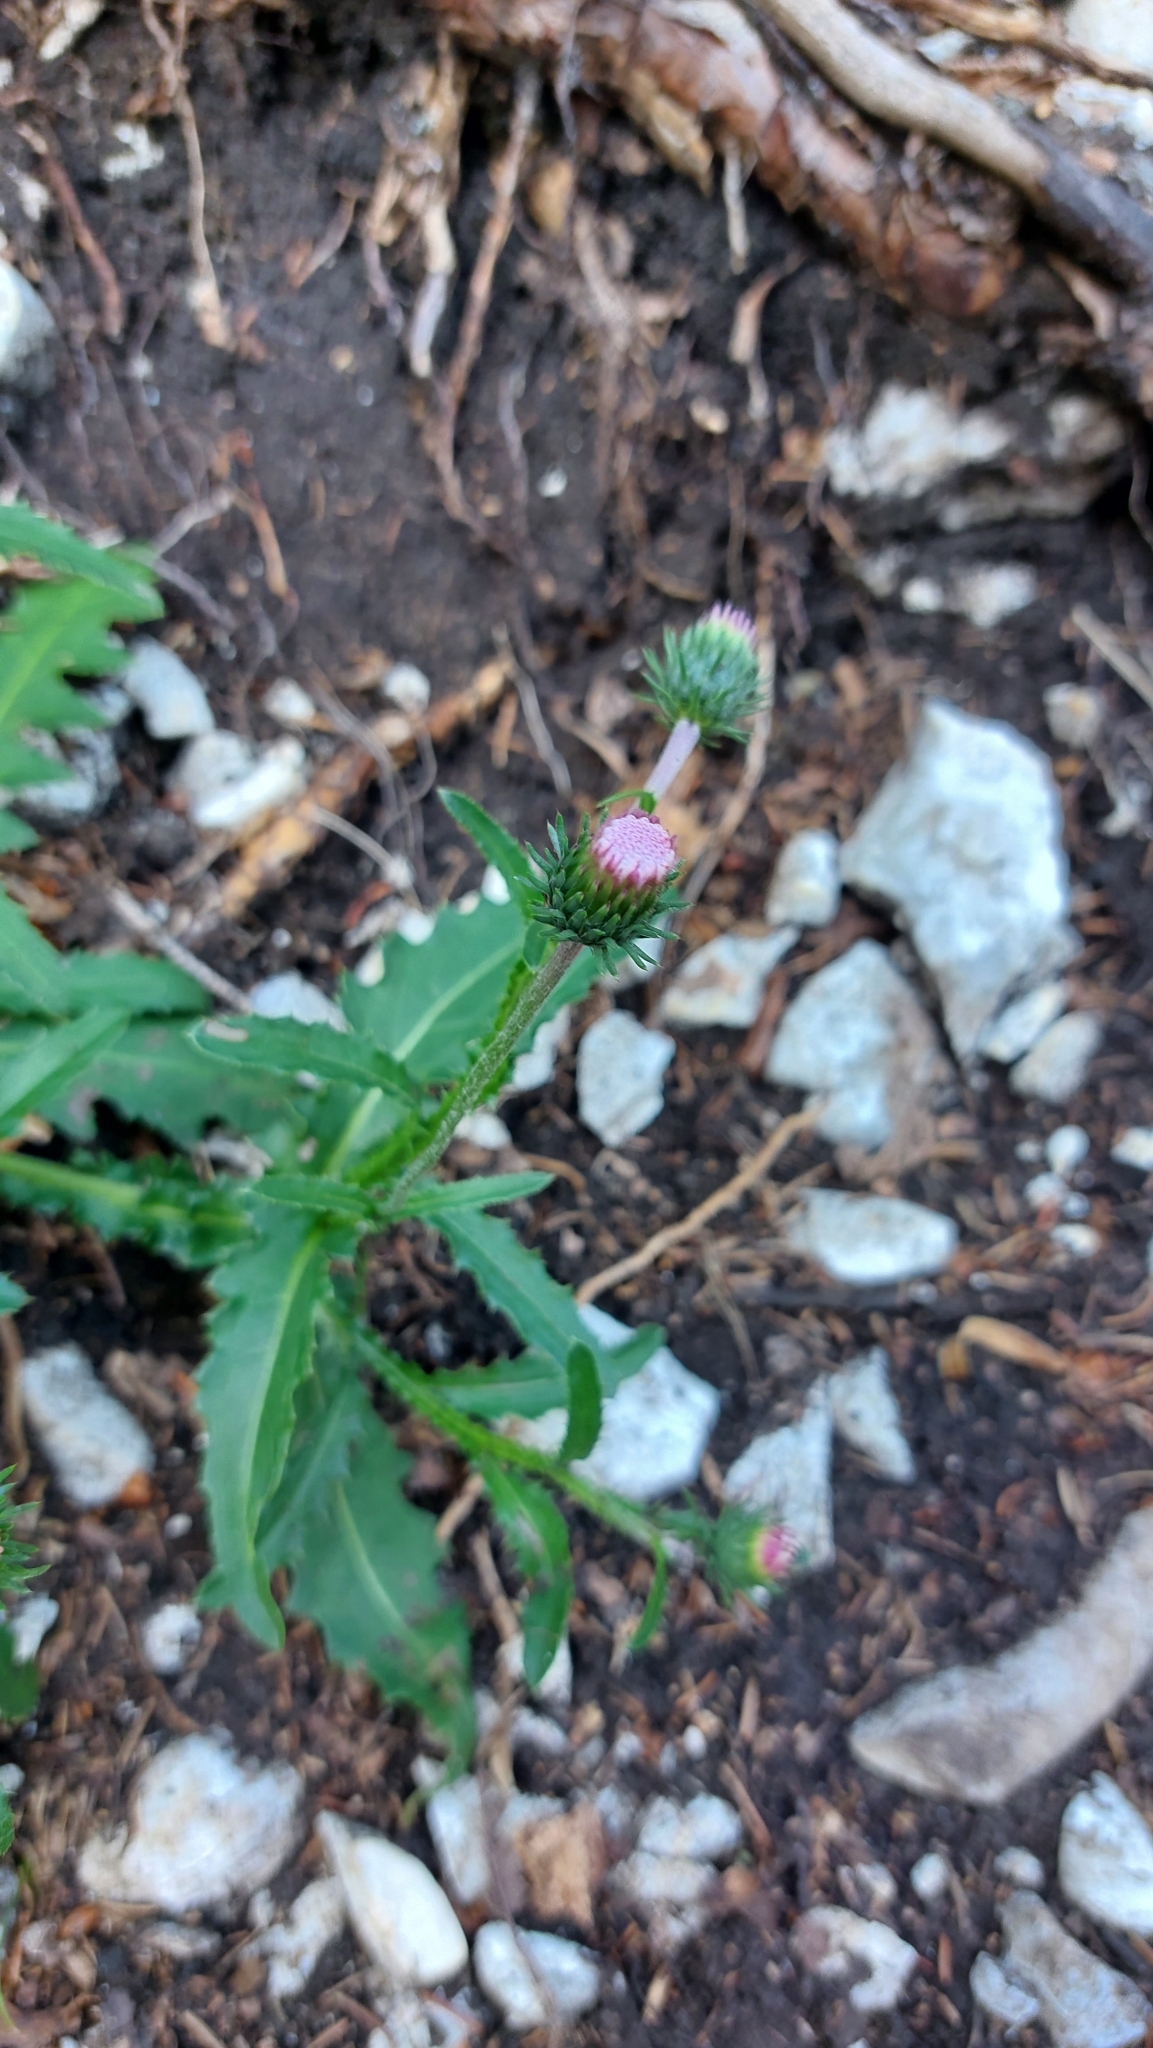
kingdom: Plantae
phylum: Tracheophyta
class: Magnoliopsida
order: Asterales
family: Asteraceae
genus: Carduus
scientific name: Carduus defloratus
